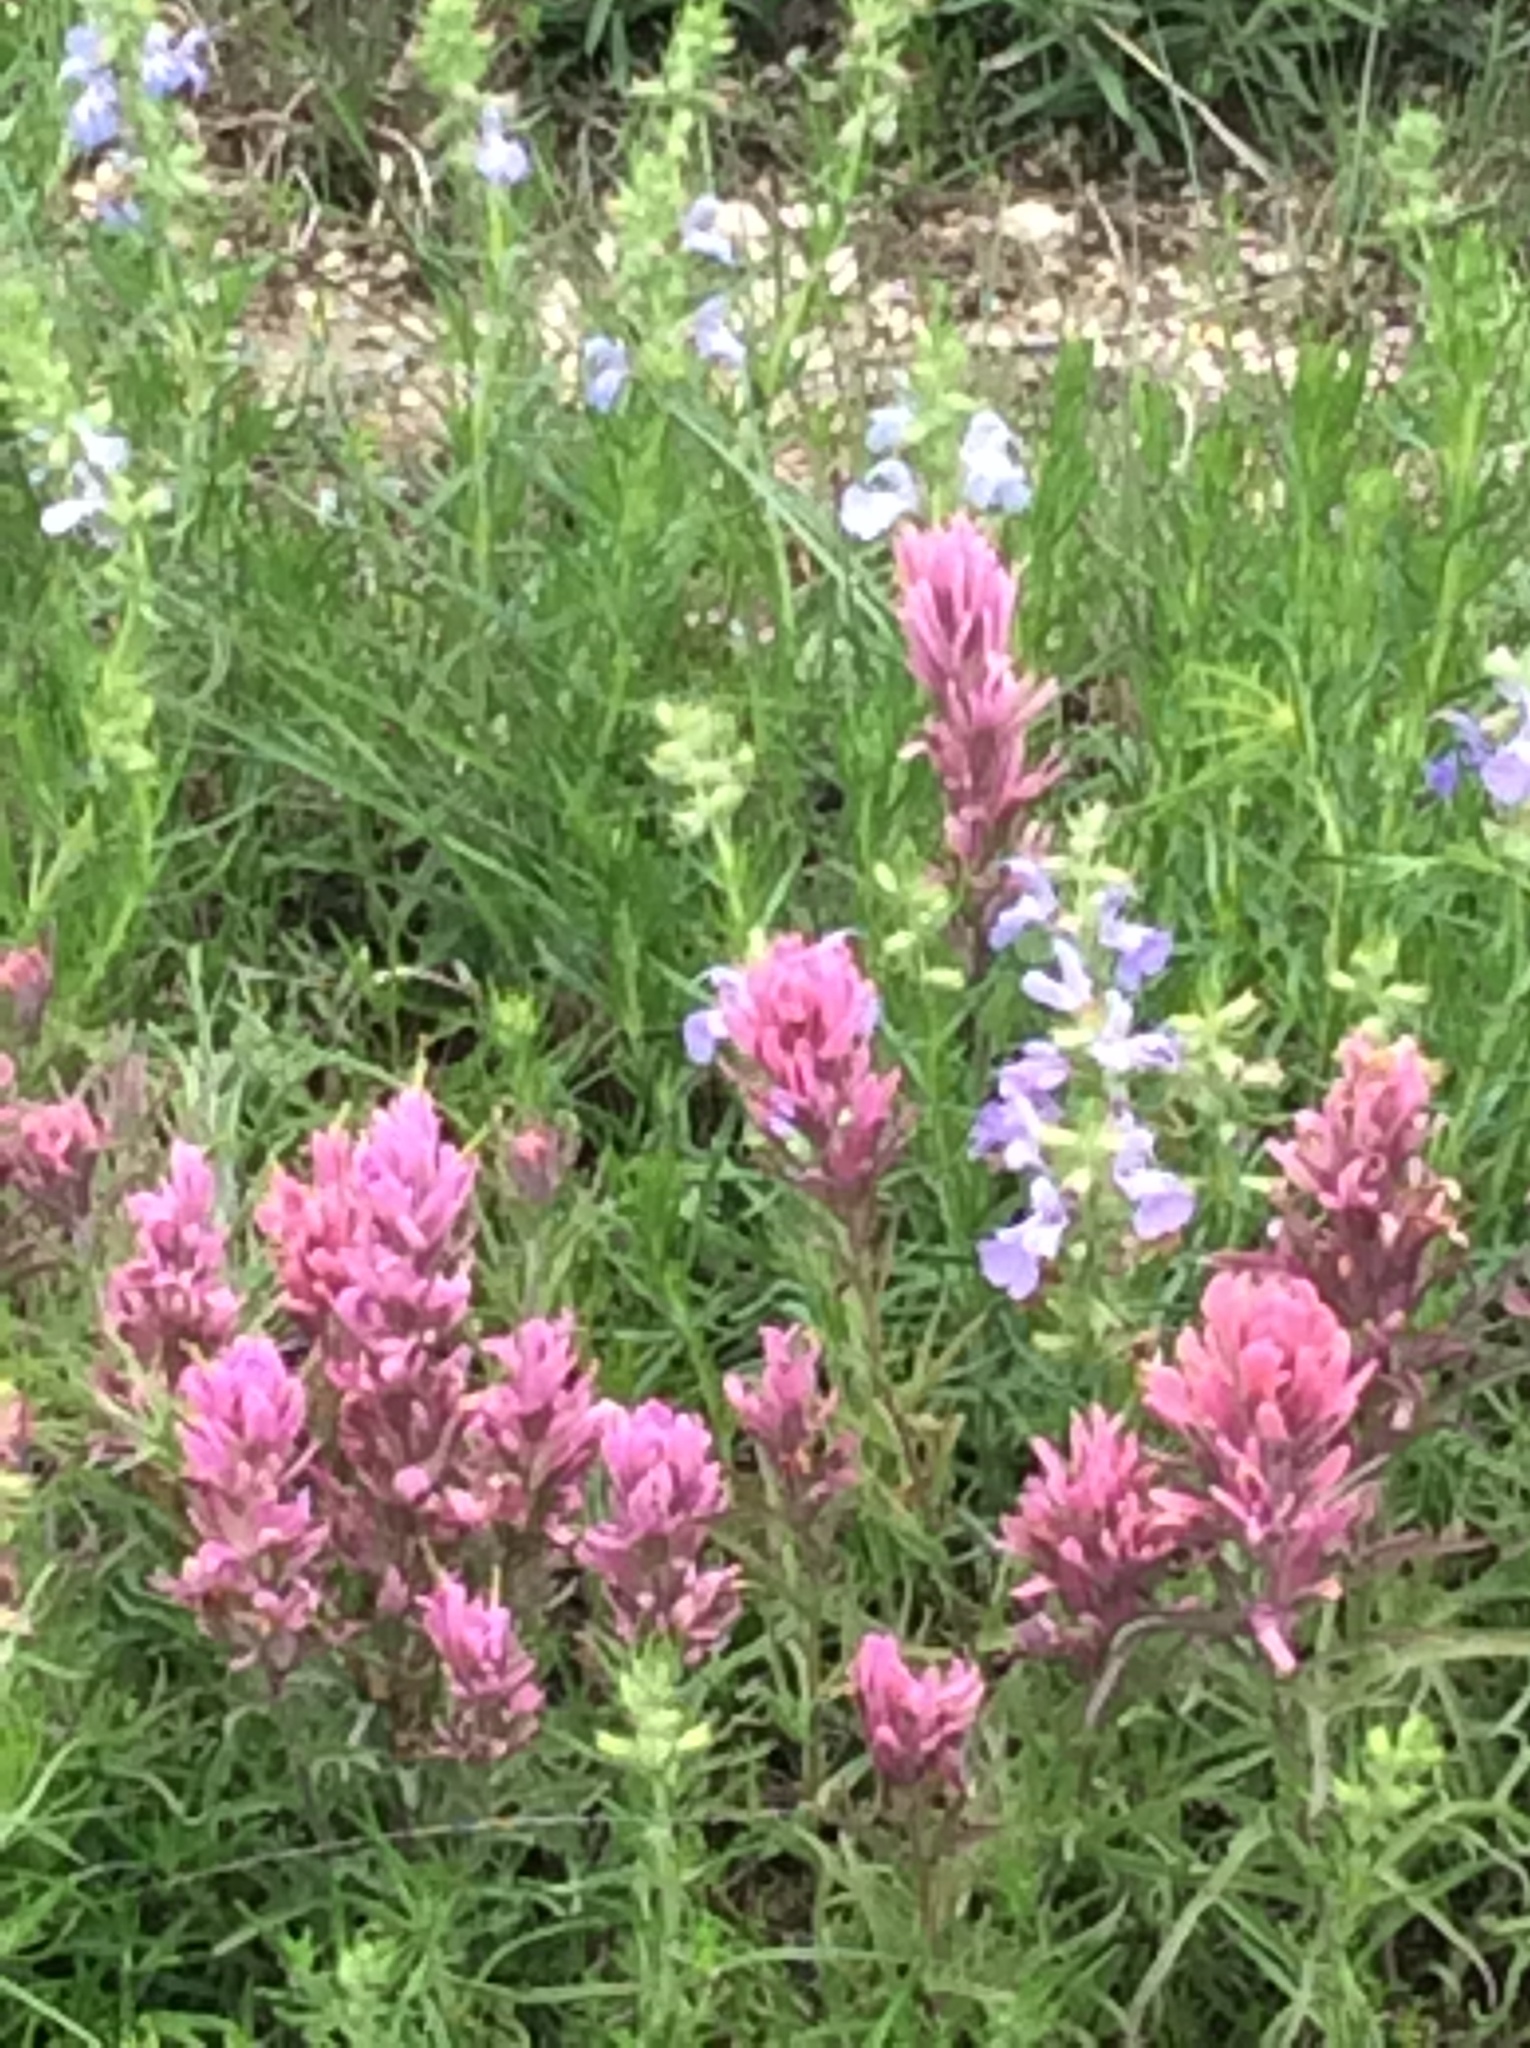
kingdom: Plantae
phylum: Tracheophyta
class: Magnoliopsida
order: Lamiales
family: Orobanchaceae
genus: Castilleja
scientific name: Castilleja purpurea
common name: Plains paintbrush
